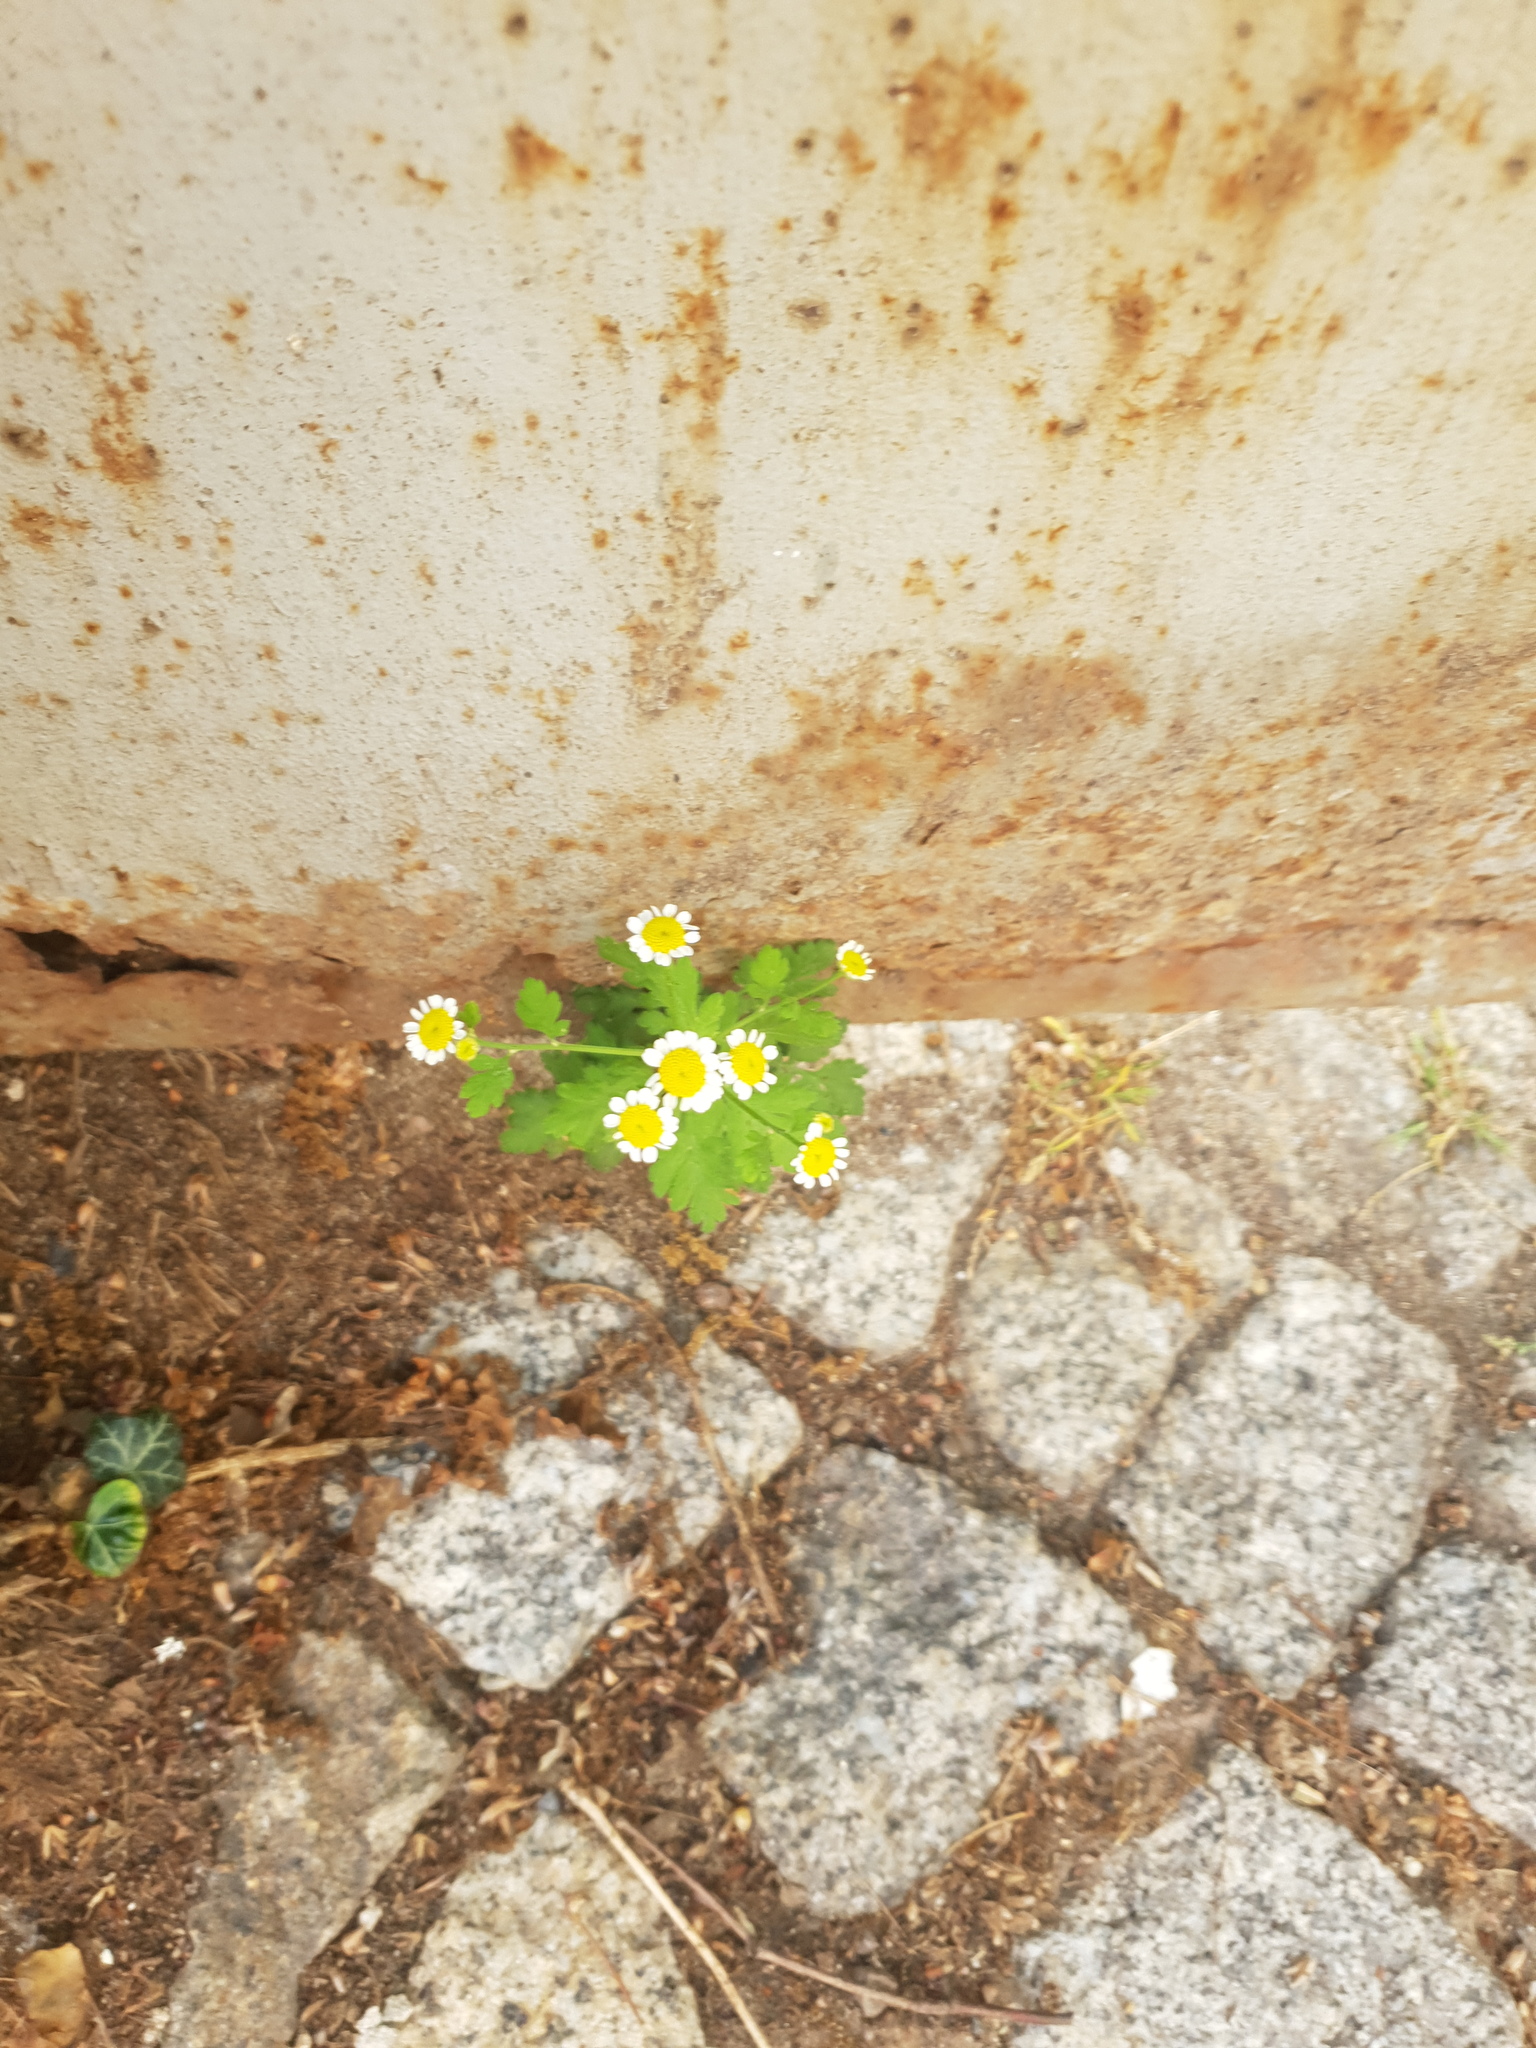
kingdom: Plantae
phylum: Tracheophyta
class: Magnoliopsida
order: Asterales
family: Asteraceae
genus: Tanacetum
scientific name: Tanacetum parthenium
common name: Feverfew
